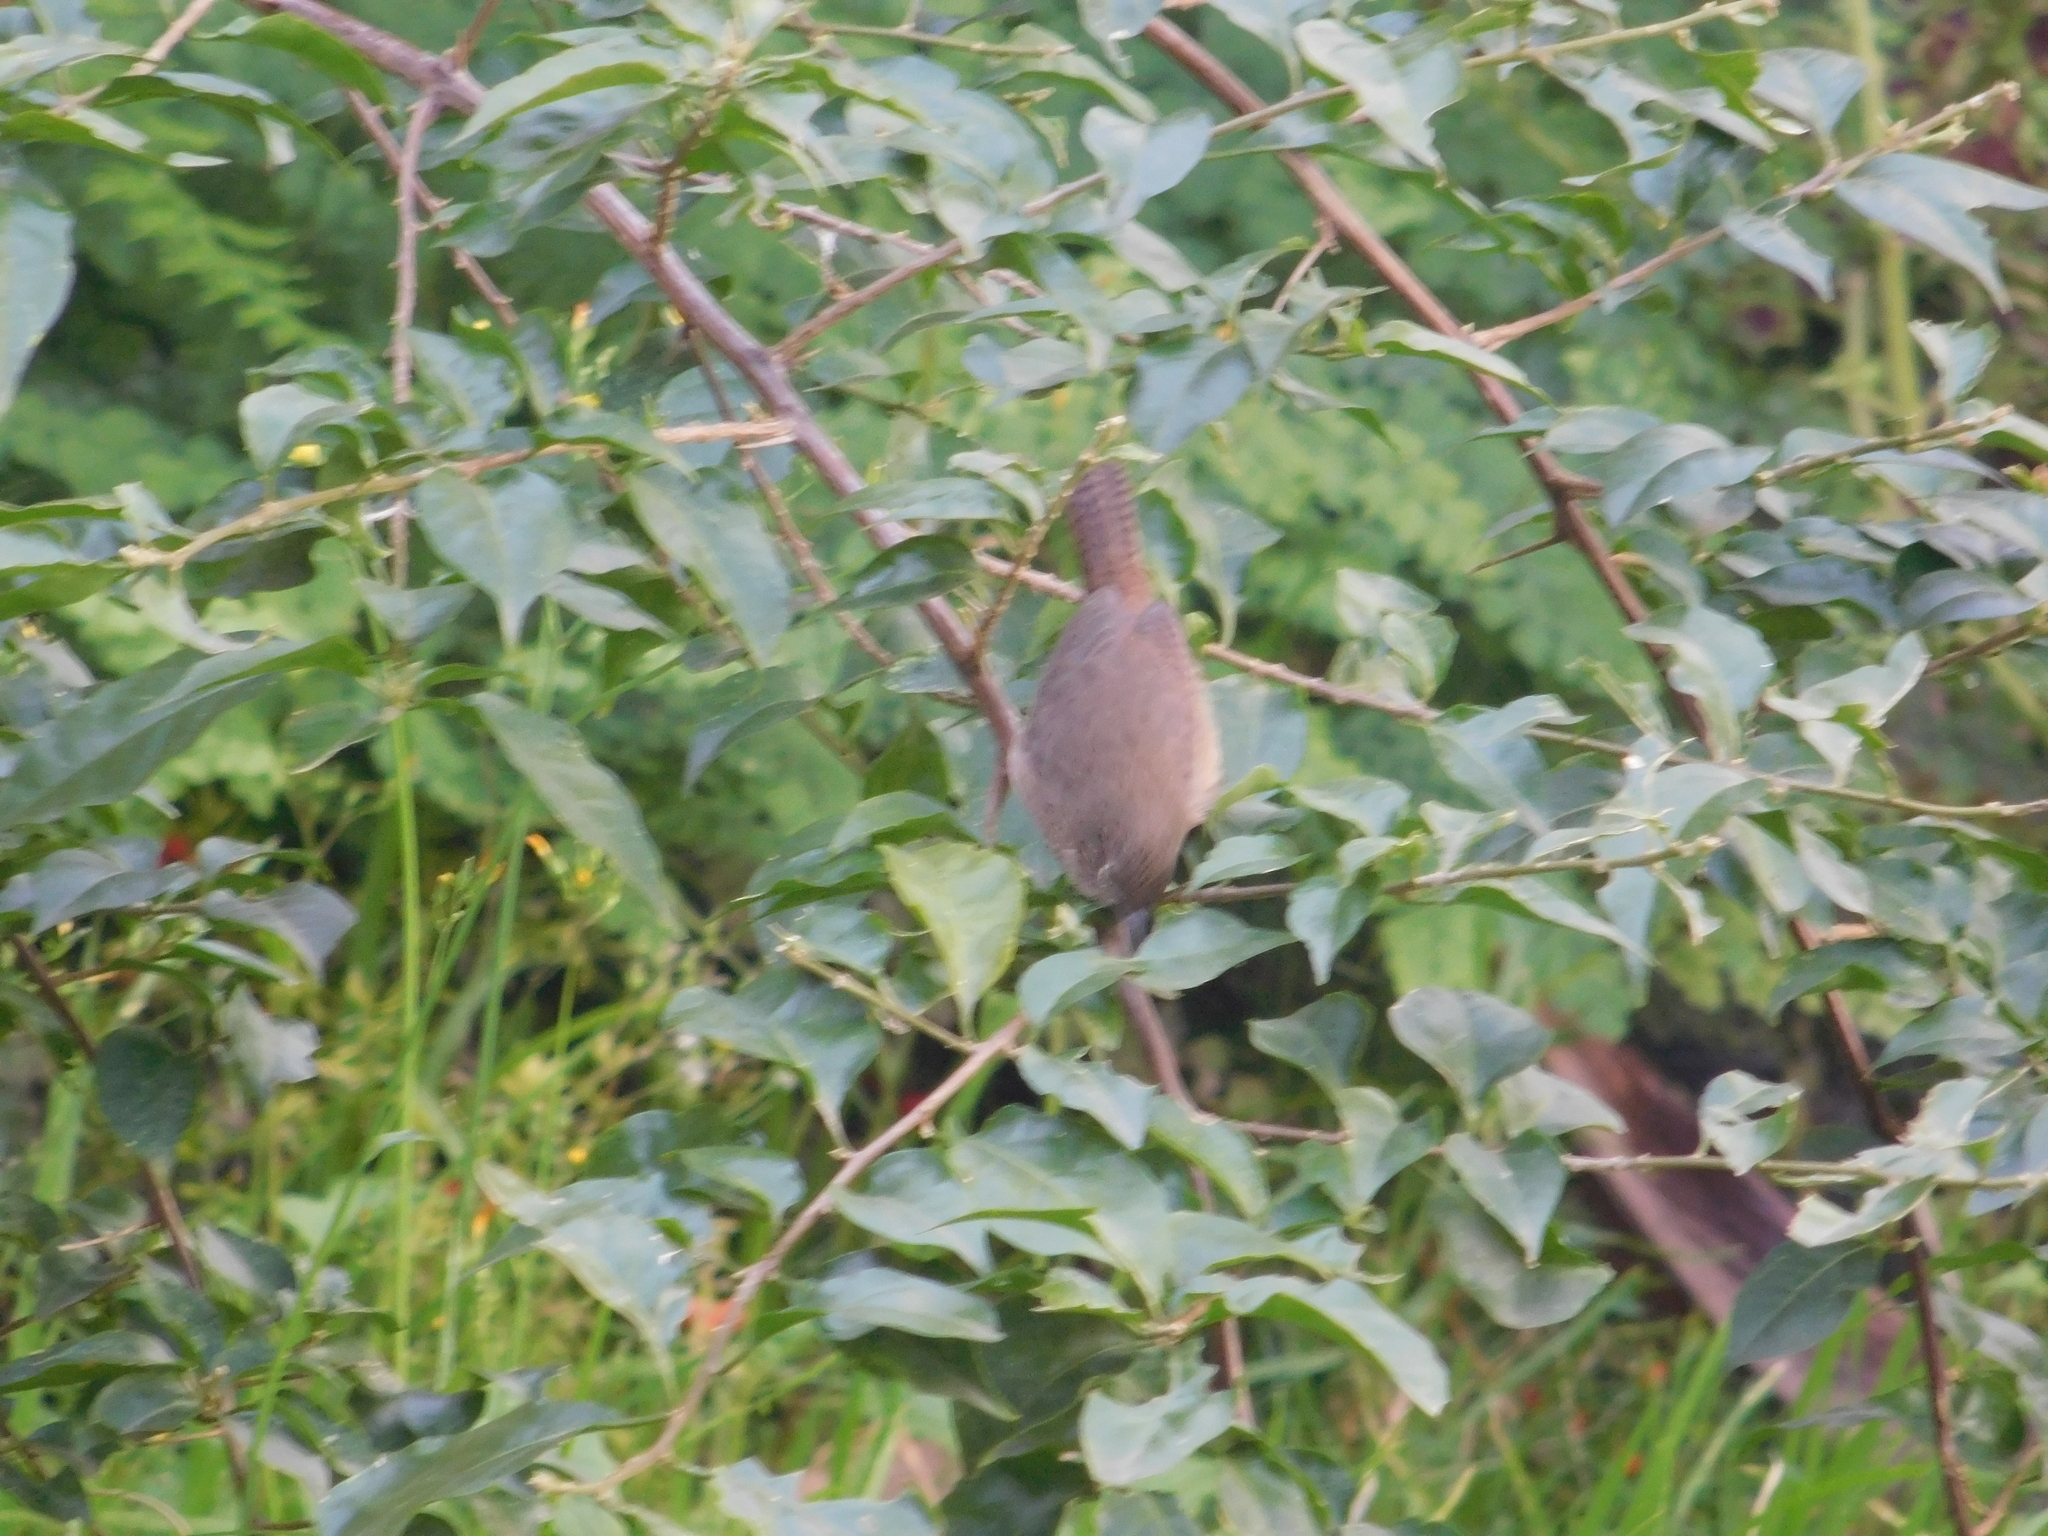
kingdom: Animalia
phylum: Chordata
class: Aves
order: Passeriformes
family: Troglodytidae
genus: Troglodytes
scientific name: Troglodytes aedon
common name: House wren
